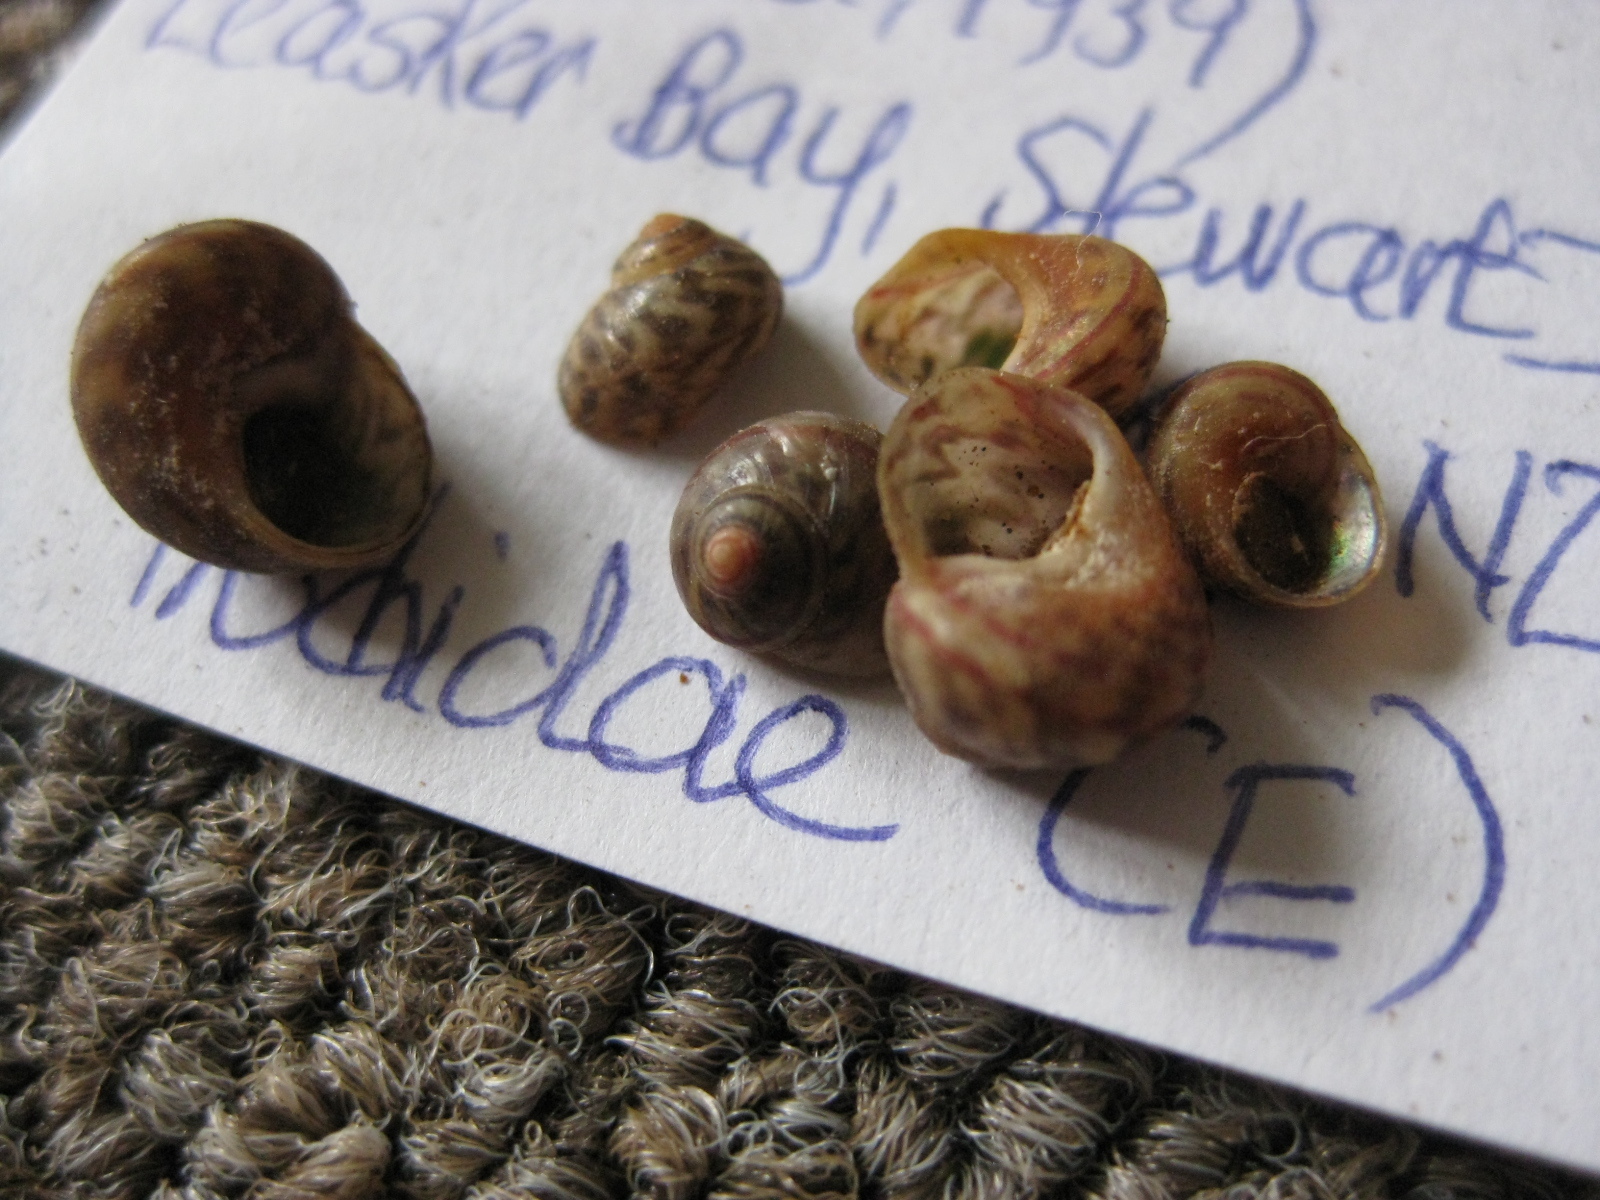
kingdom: Animalia
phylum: Mollusca
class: Gastropoda
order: Trochida
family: Trochidae
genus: Cantharidus
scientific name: Cantharidus turneri
